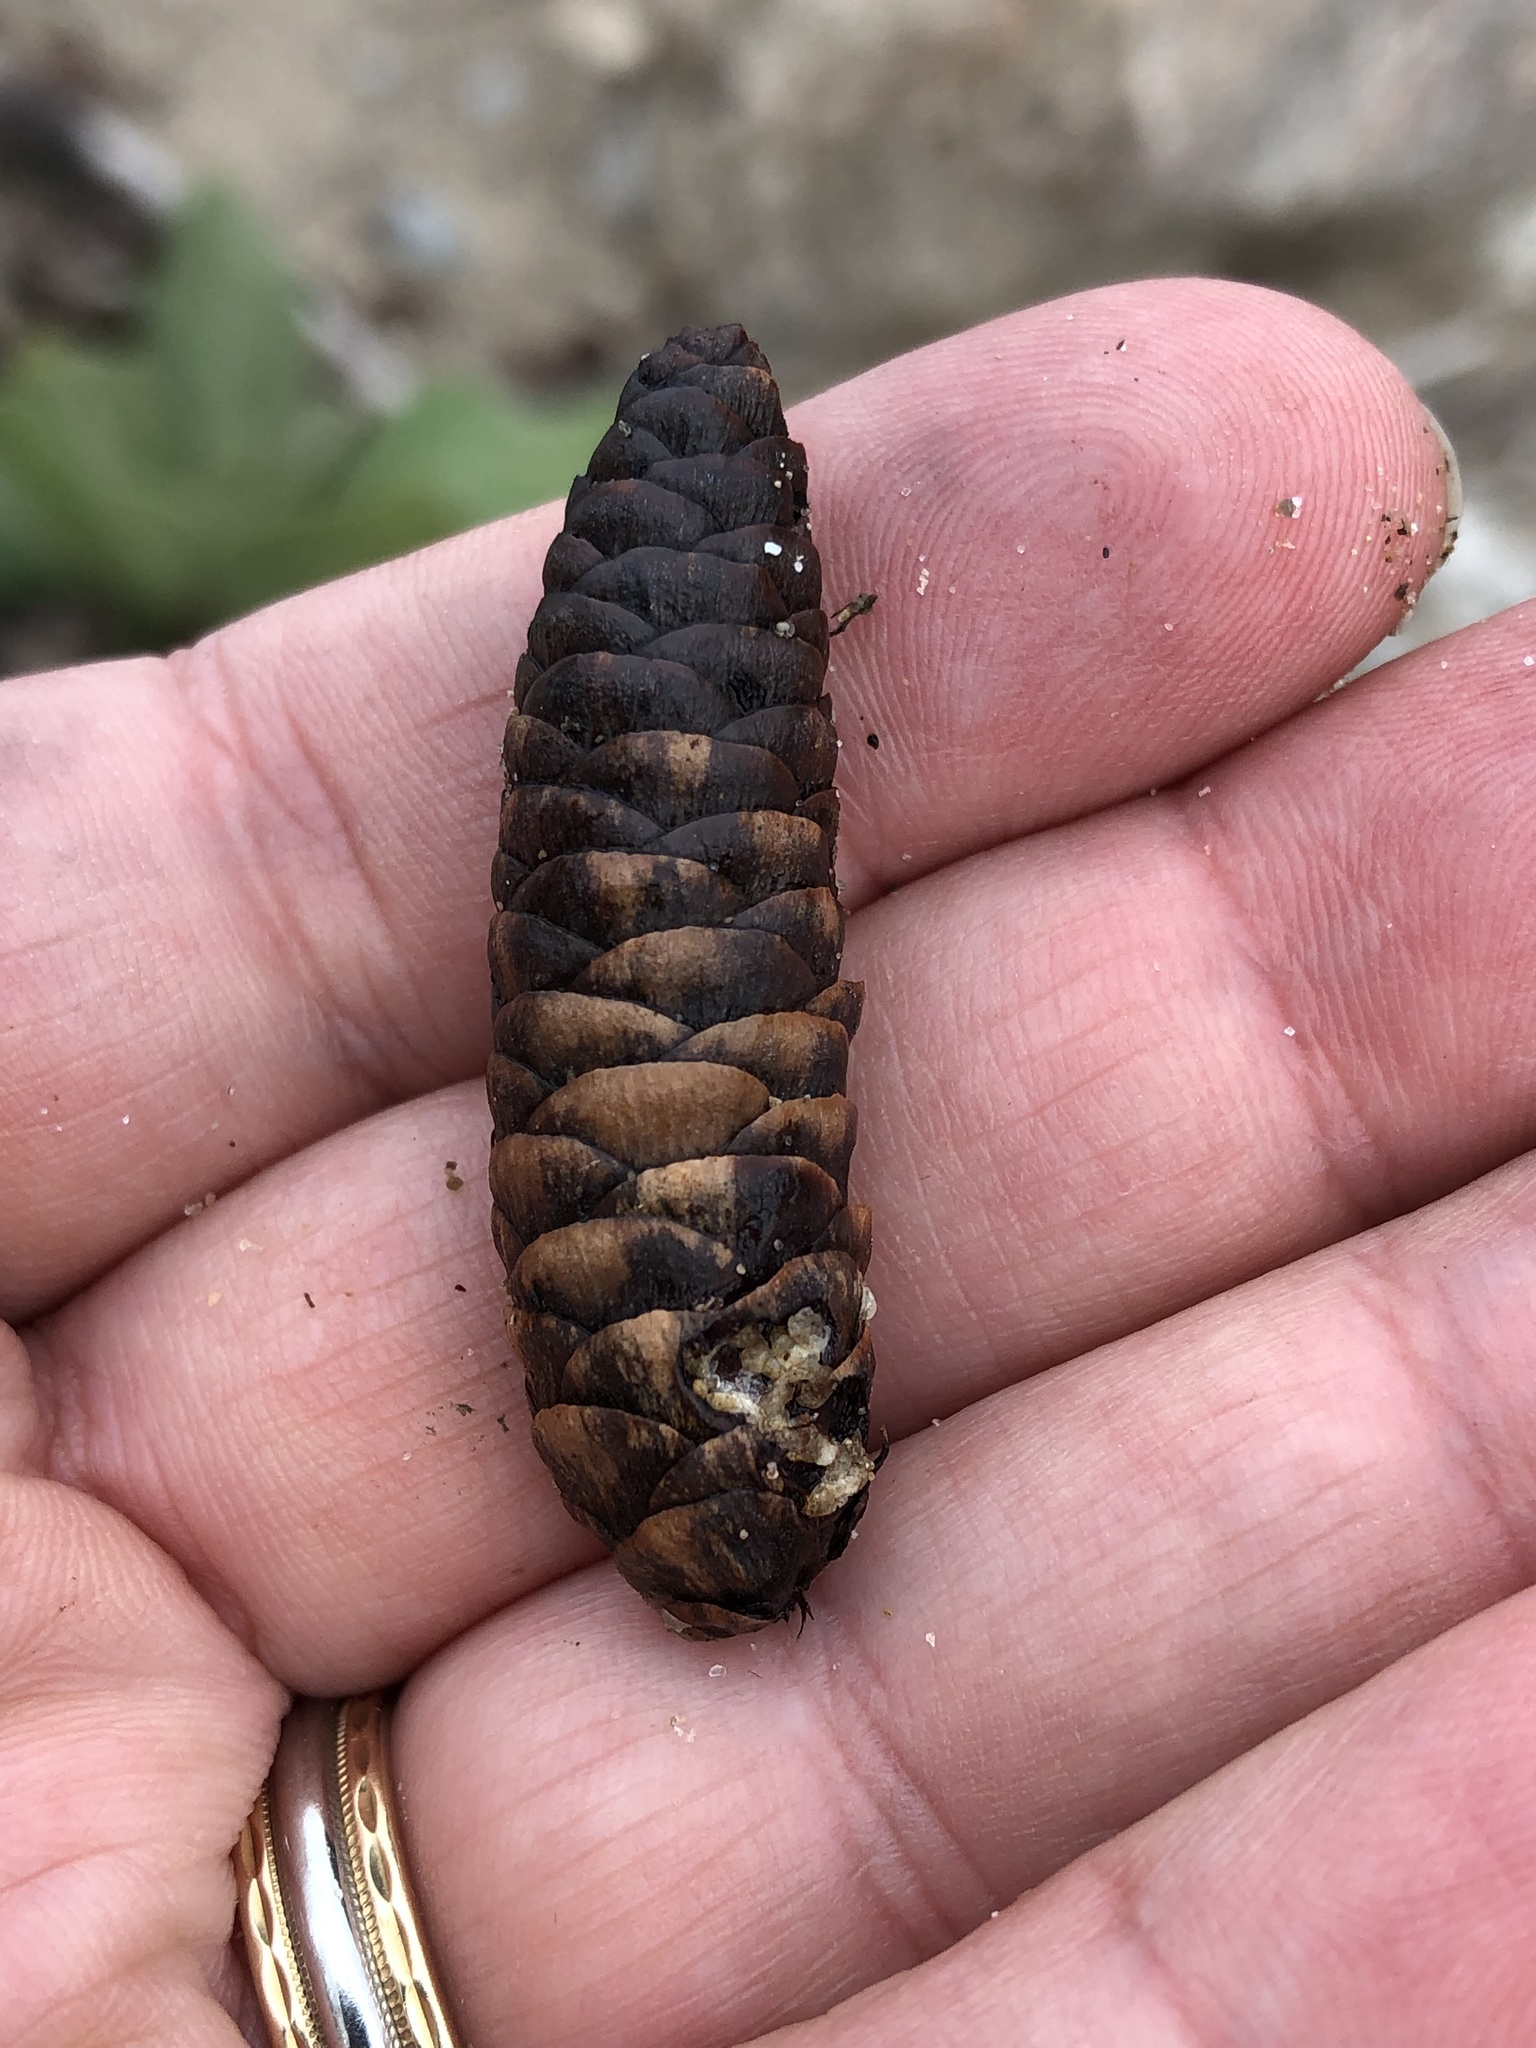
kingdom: Plantae
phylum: Tracheophyta
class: Pinopsida
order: Pinales
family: Pinaceae
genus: Picea
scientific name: Picea glauca
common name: White spruce
